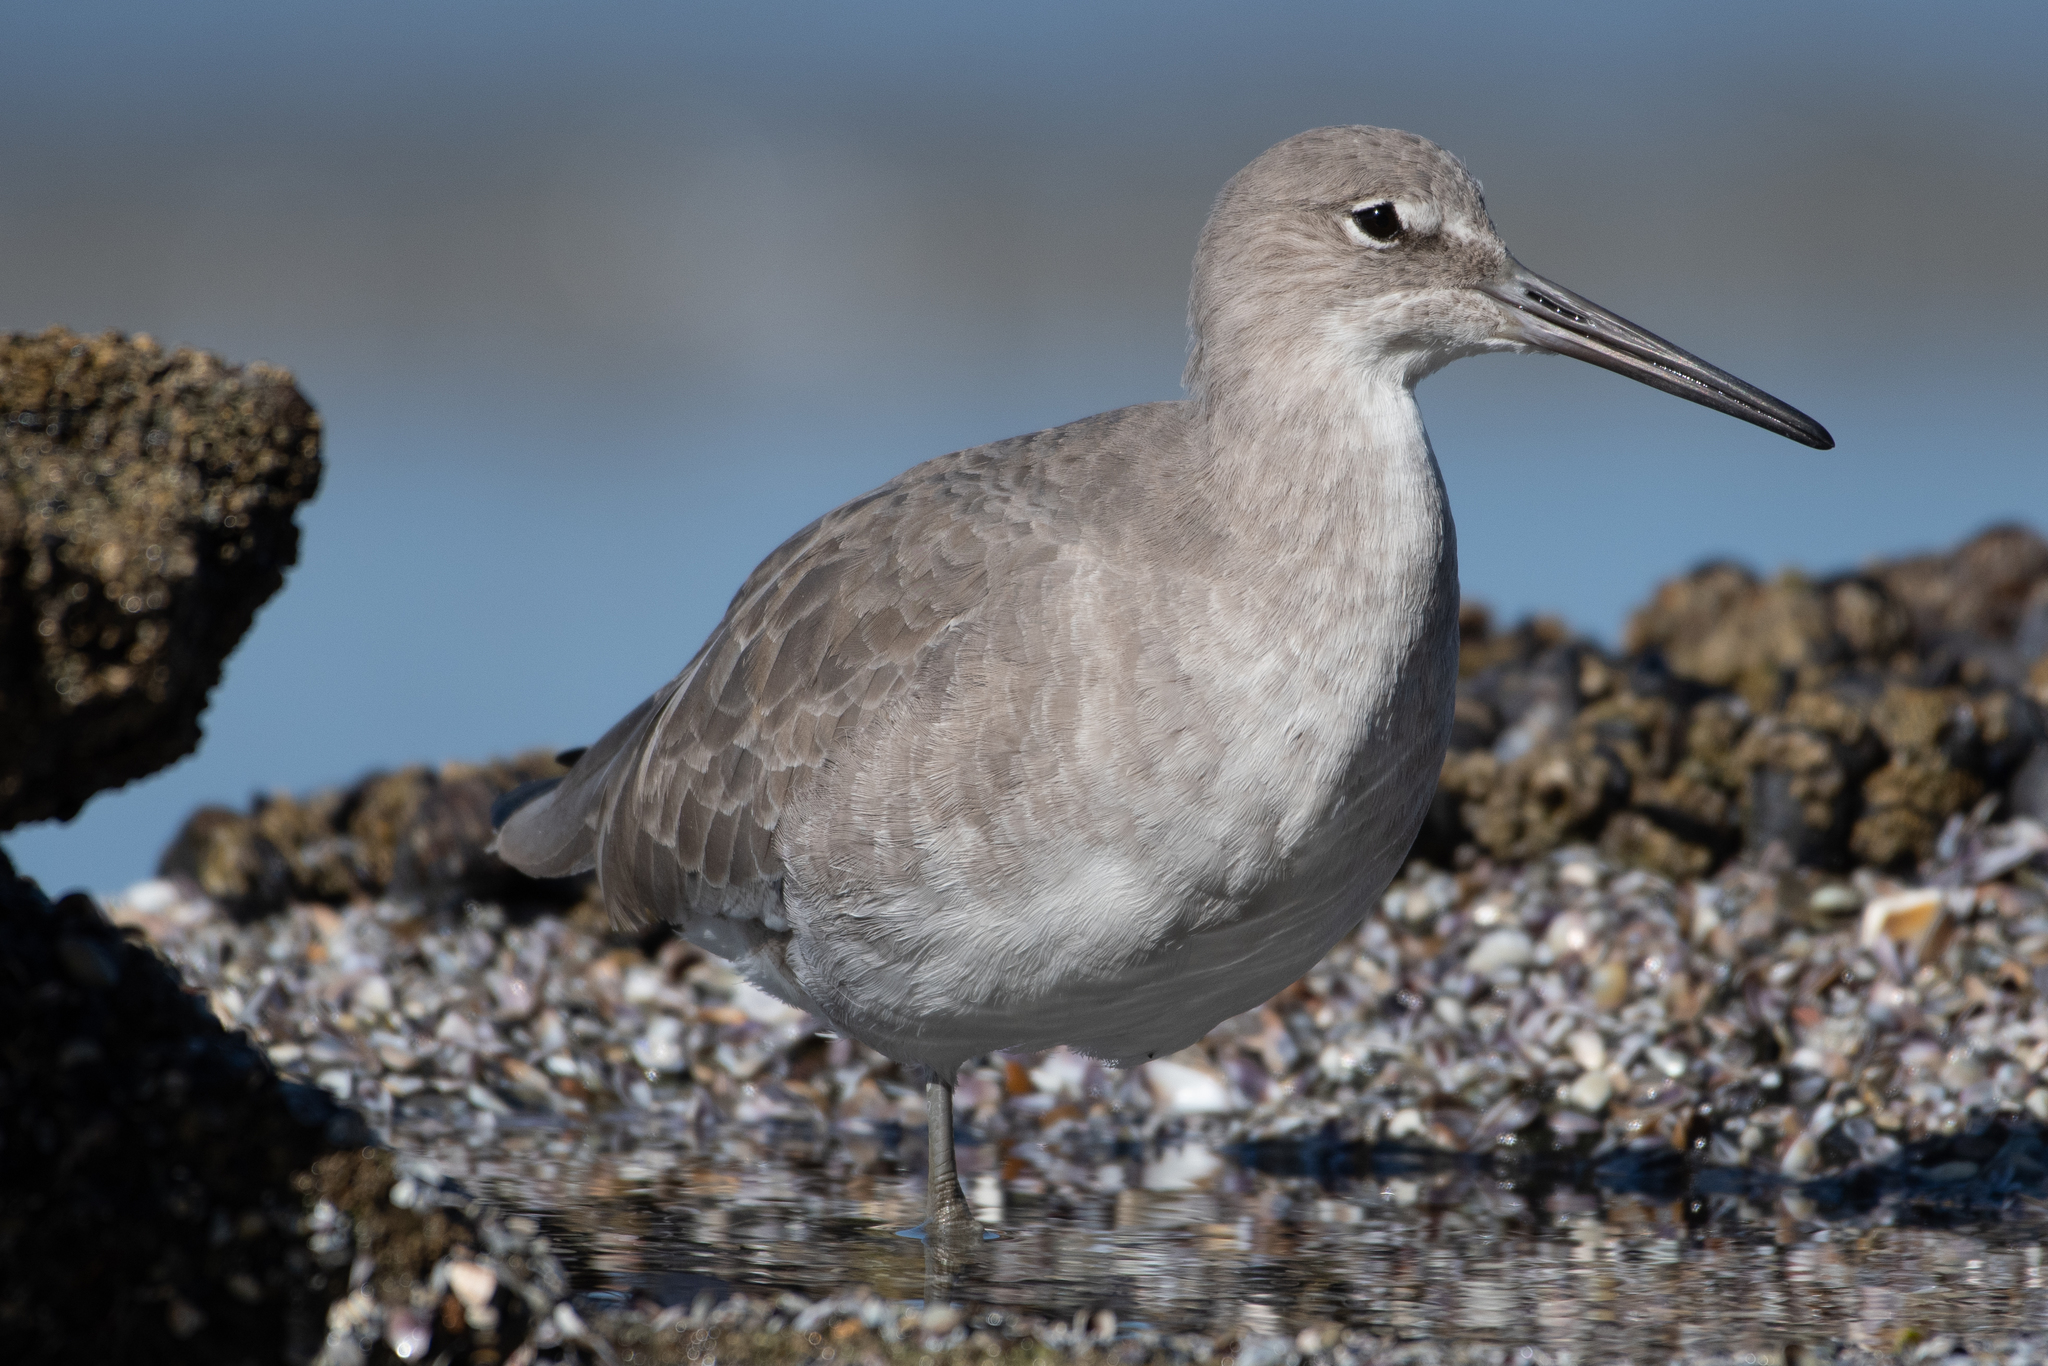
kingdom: Animalia
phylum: Chordata
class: Aves
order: Charadriiformes
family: Scolopacidae
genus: Tringa
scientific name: Tringa semipalmata
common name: Willet
